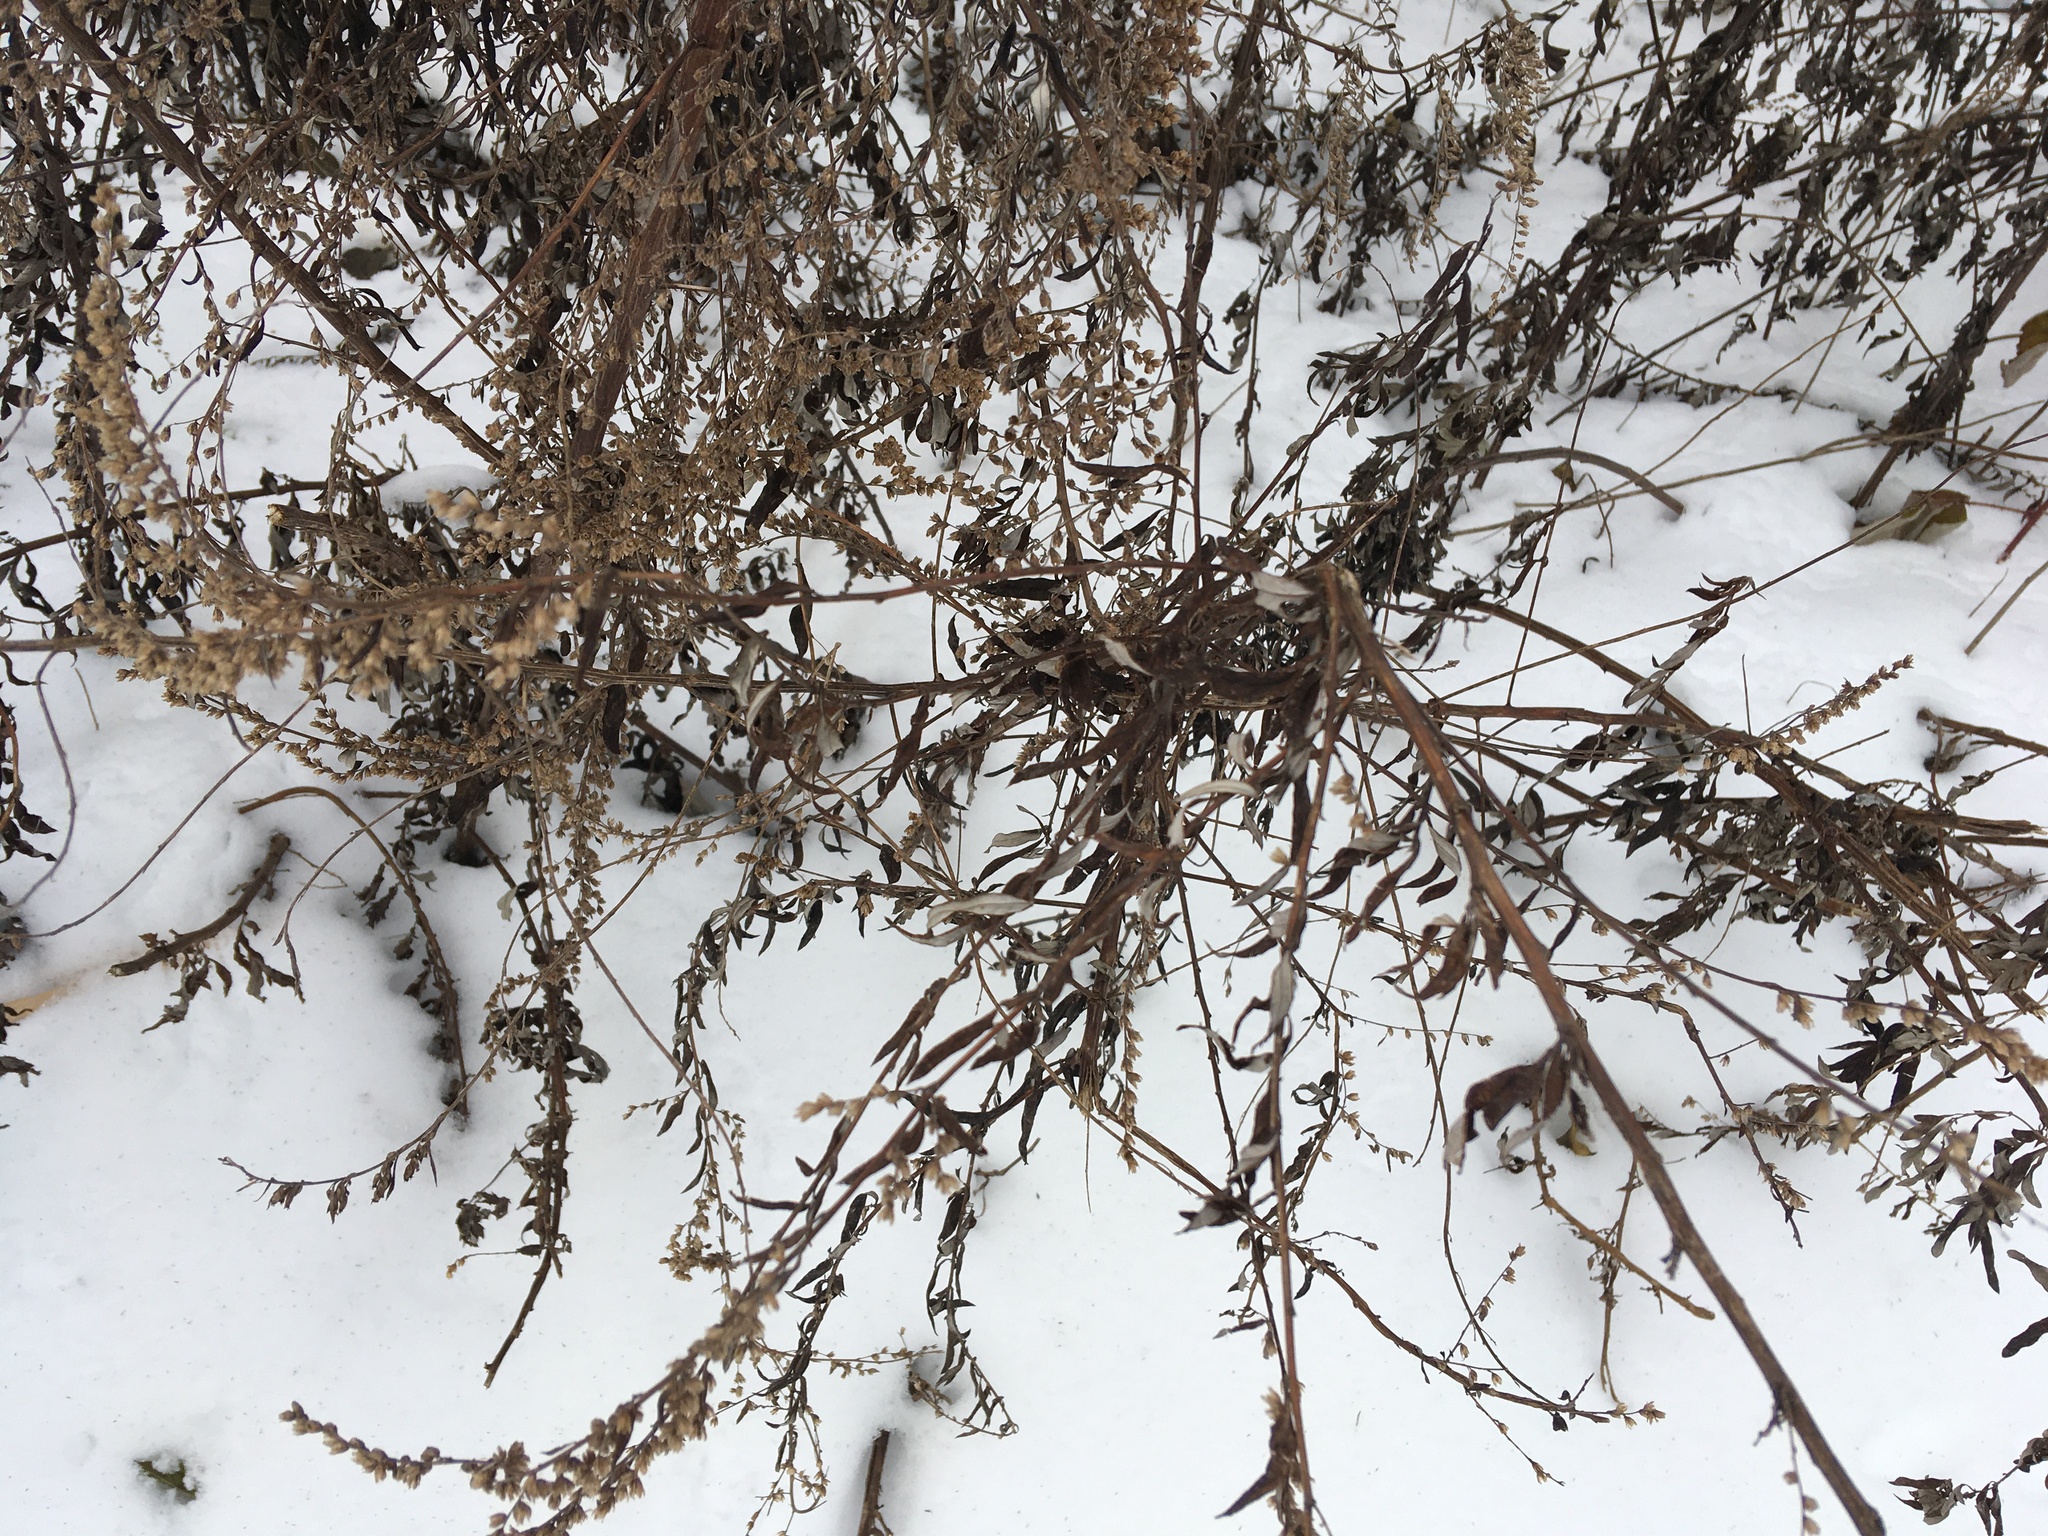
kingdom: Plantae
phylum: Tracheophyta
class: Magnoliopsida
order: Asterales
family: Asteraceae
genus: Artemisia
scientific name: Artemisia vulgaris
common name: Mugwort
